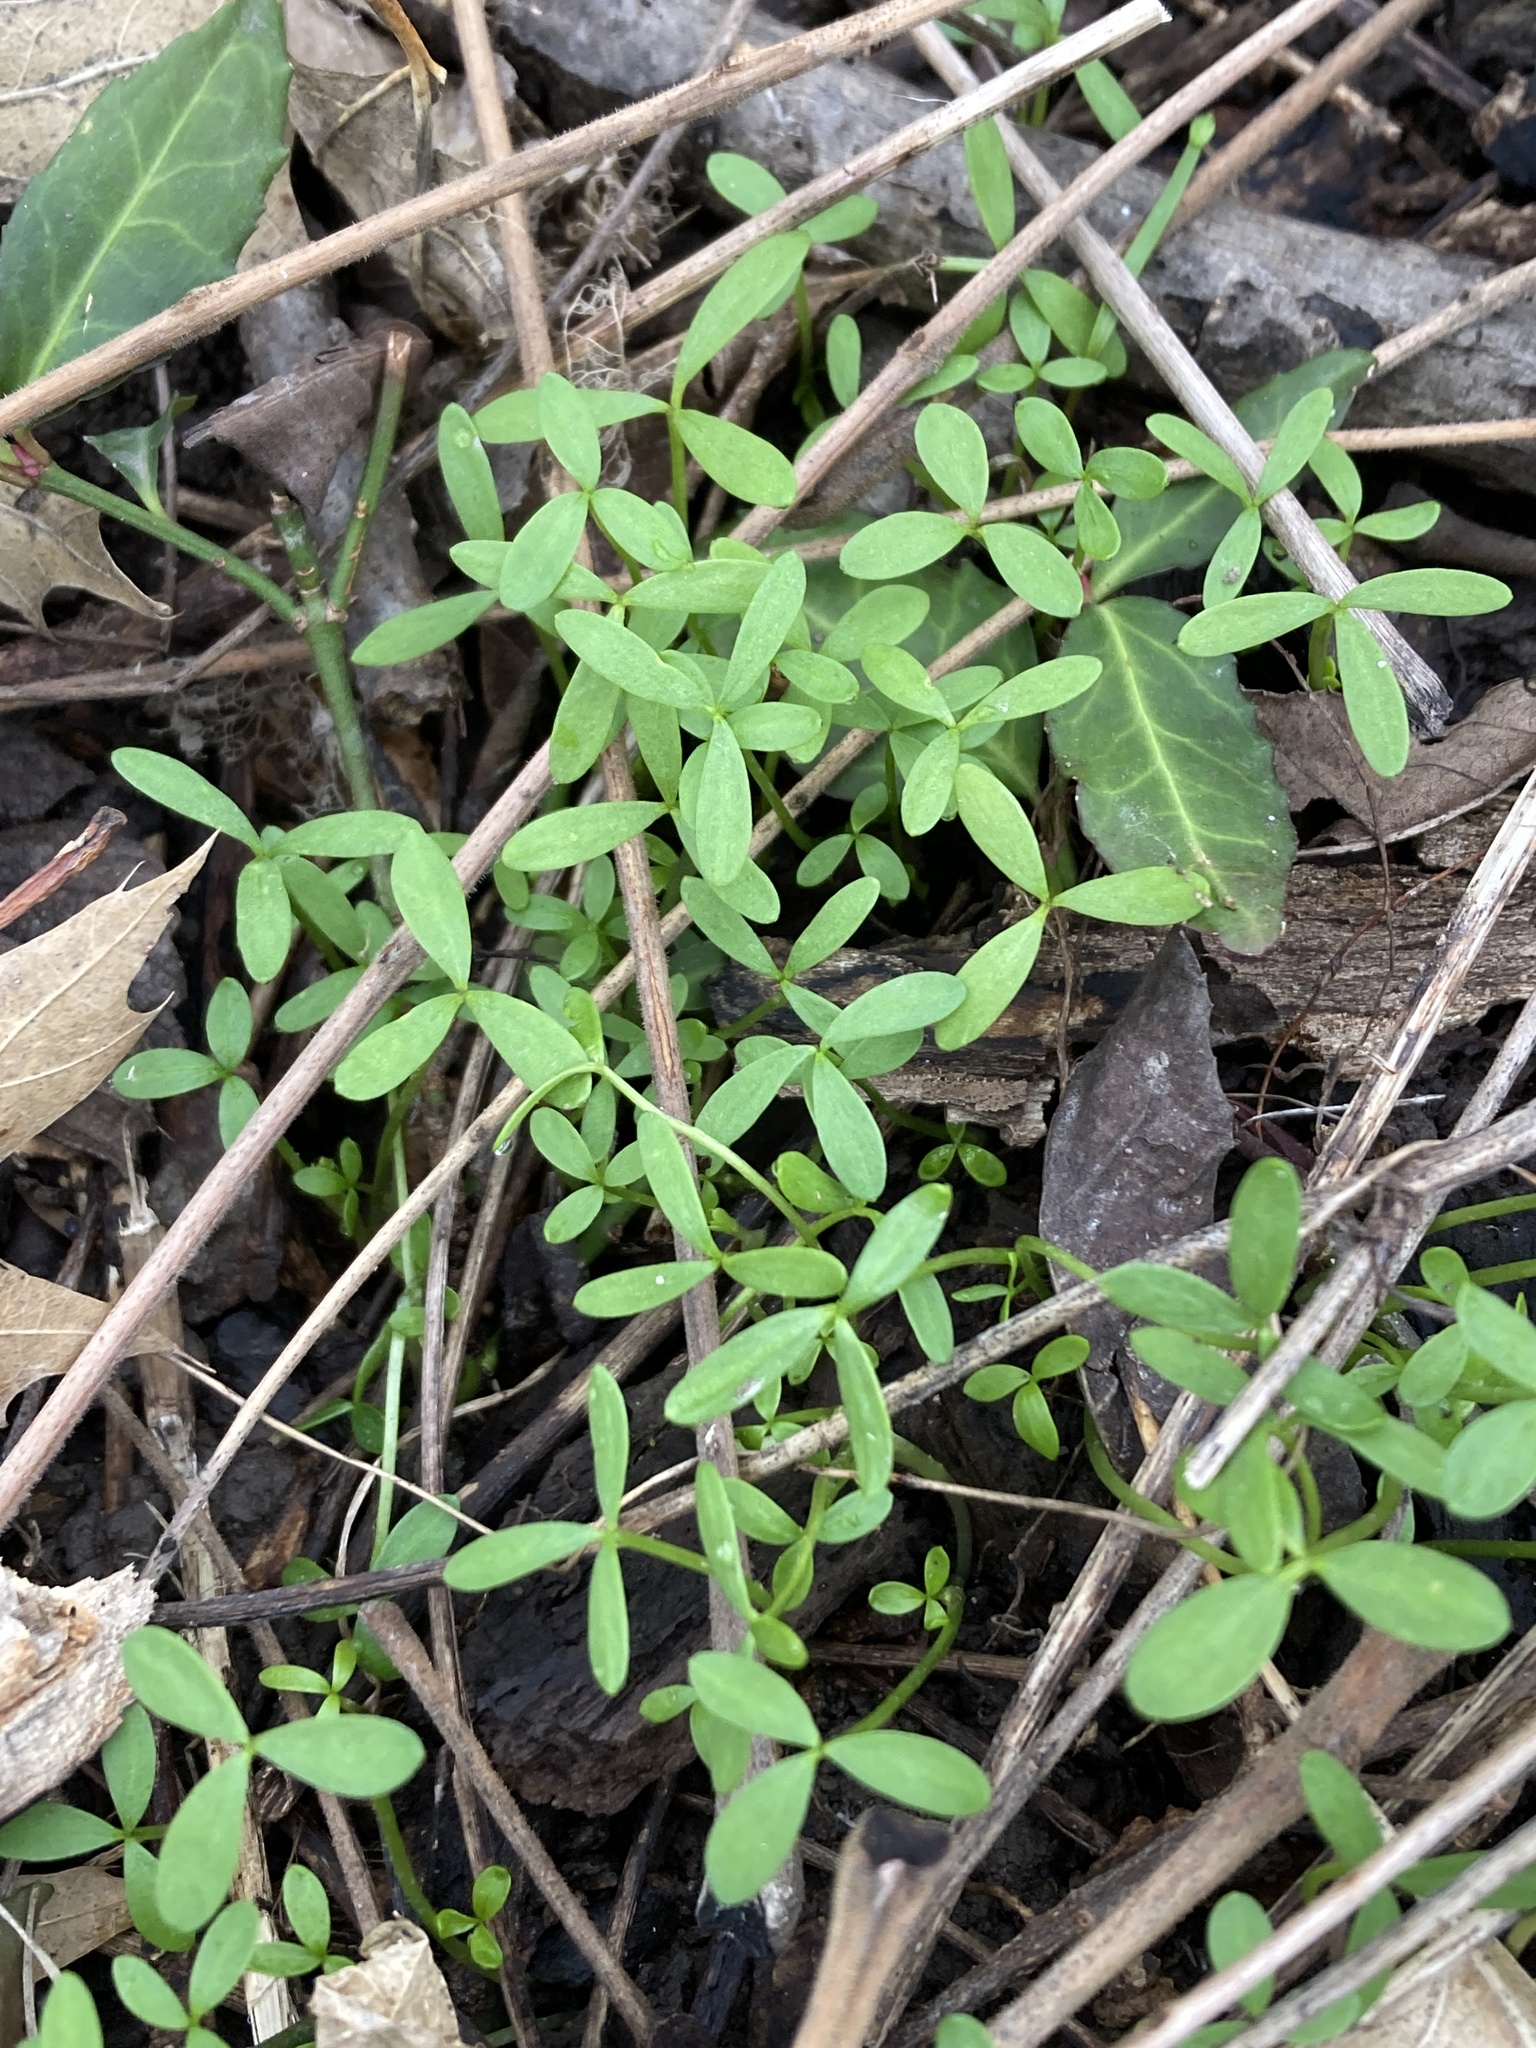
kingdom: Plantae
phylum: Tracheophyta
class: Magnoliopsida
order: Brassicales
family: Limnanthaceae
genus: Floerkea
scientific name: Floerkea proserpinacoides
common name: False mermaid
